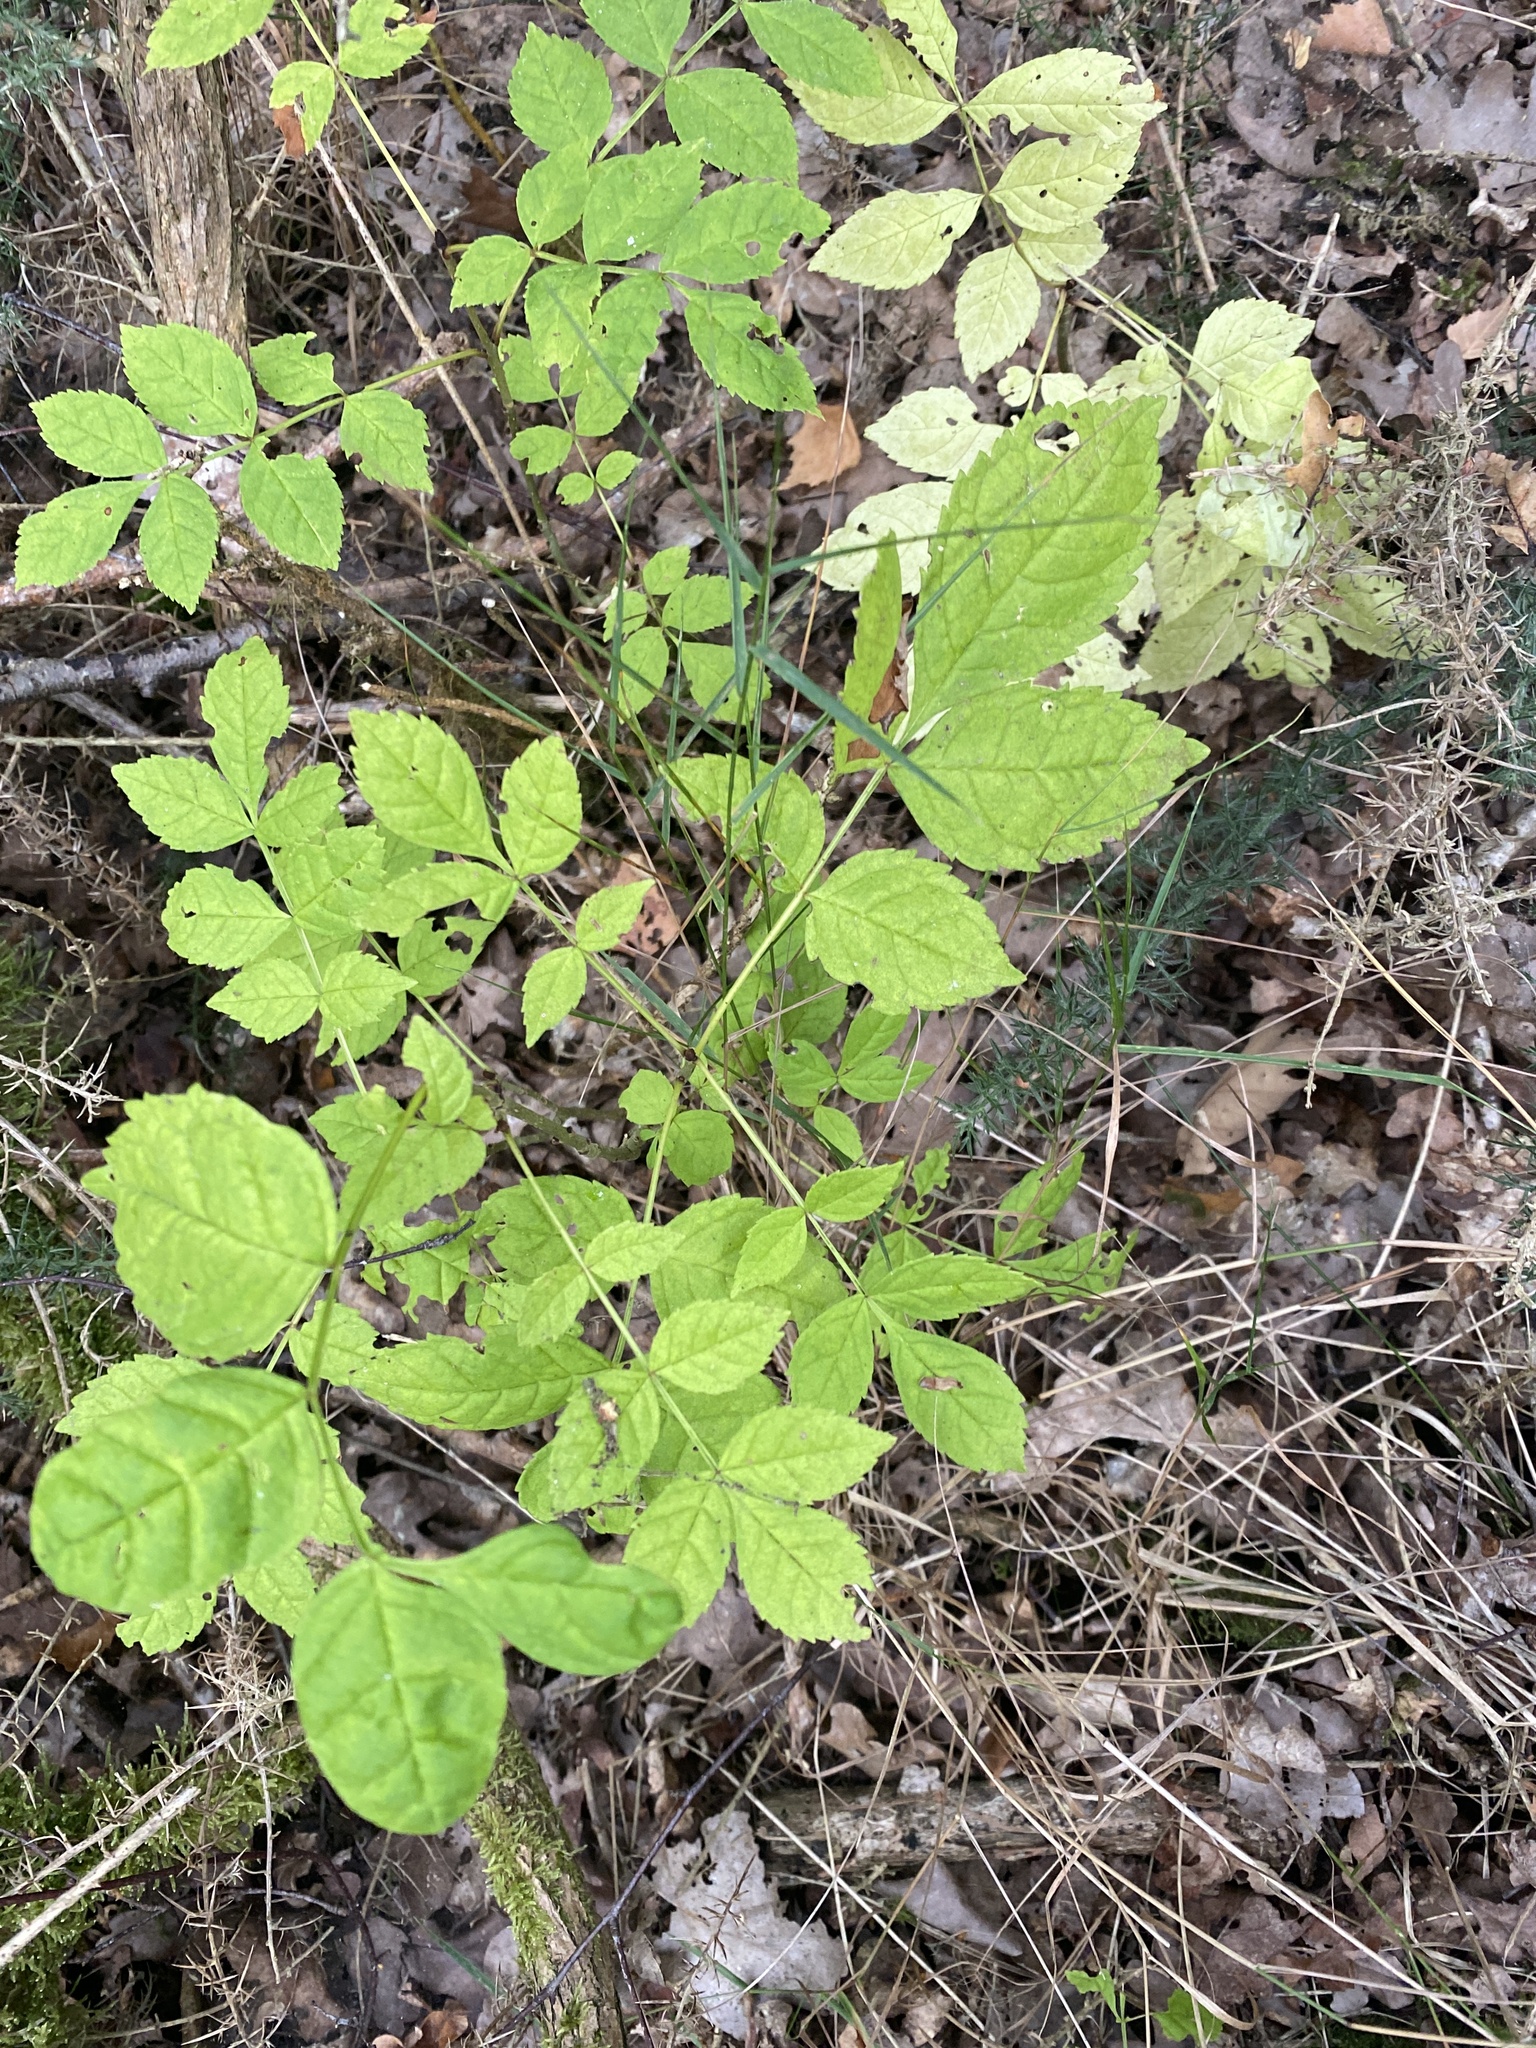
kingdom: Plantae
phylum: Tracheophyta
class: Magnoliopsida
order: Lamiales
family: Oleaceae
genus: Fraxinus
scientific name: Fraxinus excelsior
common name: European ash
